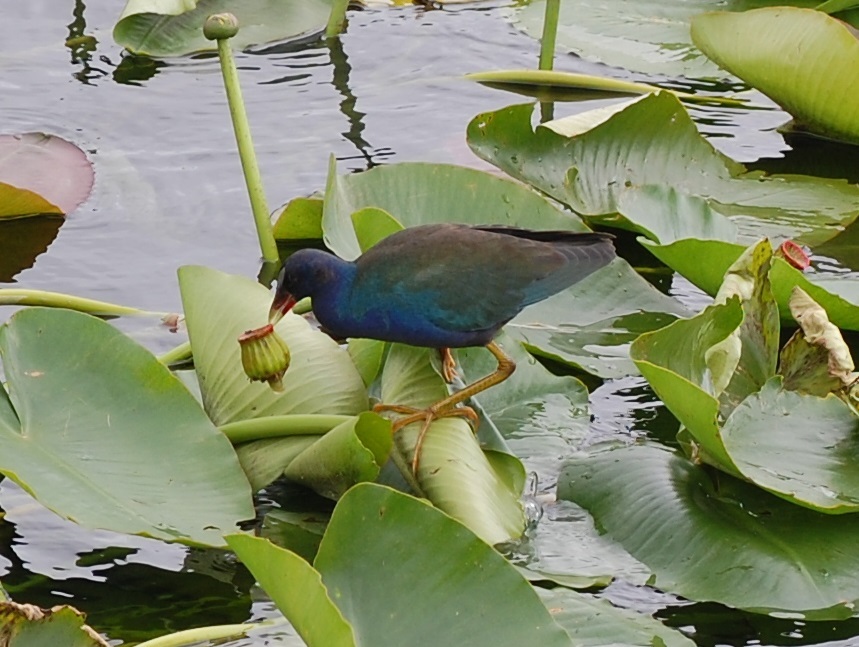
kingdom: Animalia
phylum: Chordata
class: Aves
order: Gruiformes
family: Rallidae
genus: Porphyrio
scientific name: Porphyrio martinica
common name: Purple gallinule
